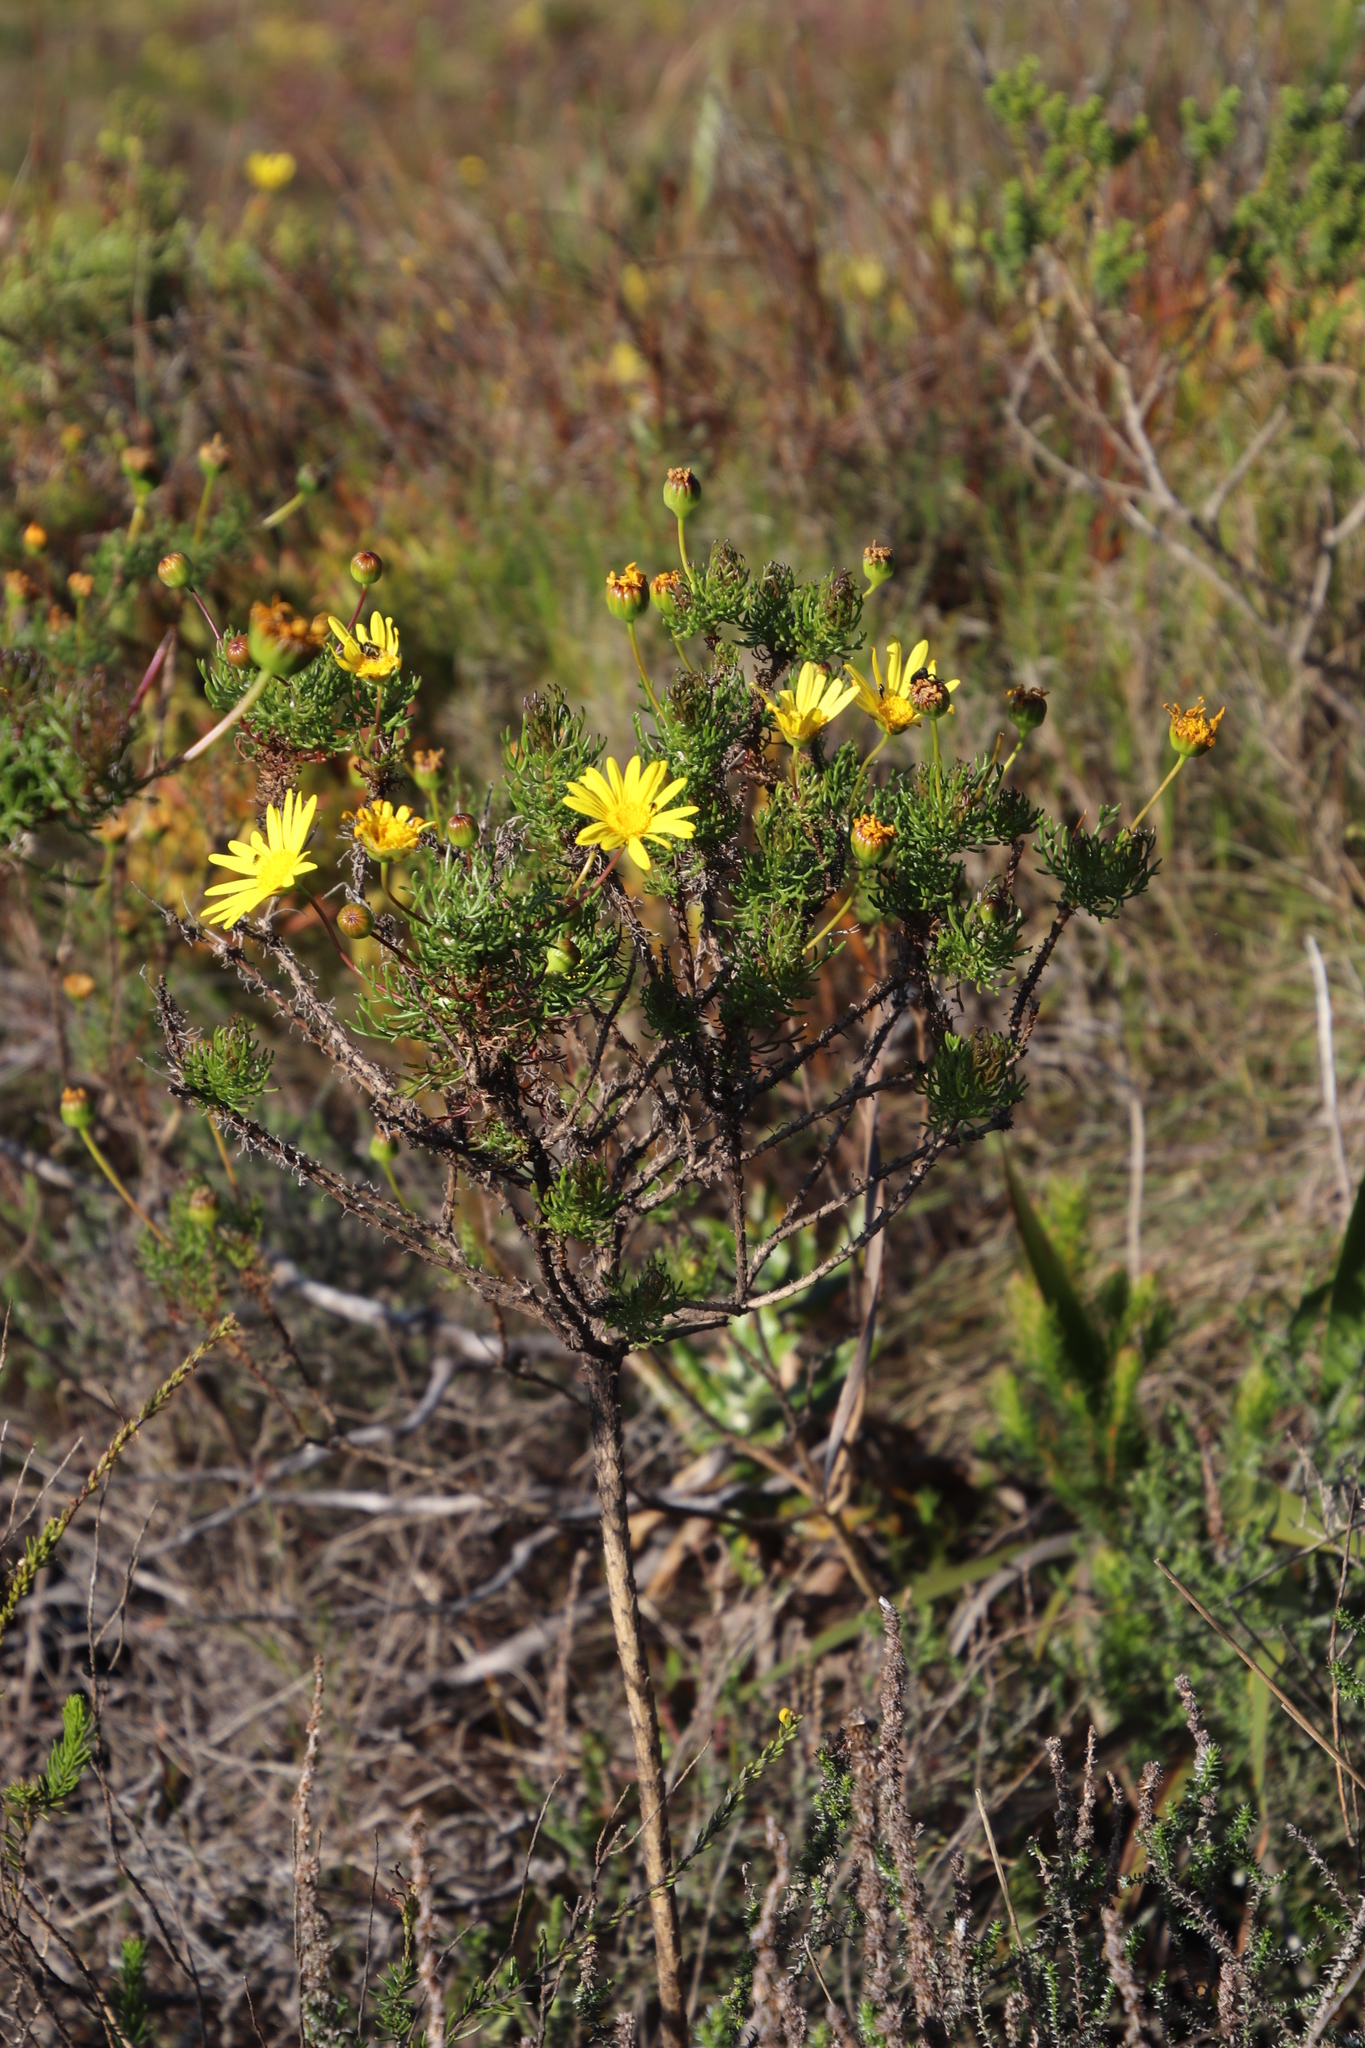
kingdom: Plantae
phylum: Tracheophyta
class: Magnoliopsida
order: Asterales
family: Asteraceae
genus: Euryops
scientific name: Euryops abrotanifolius
